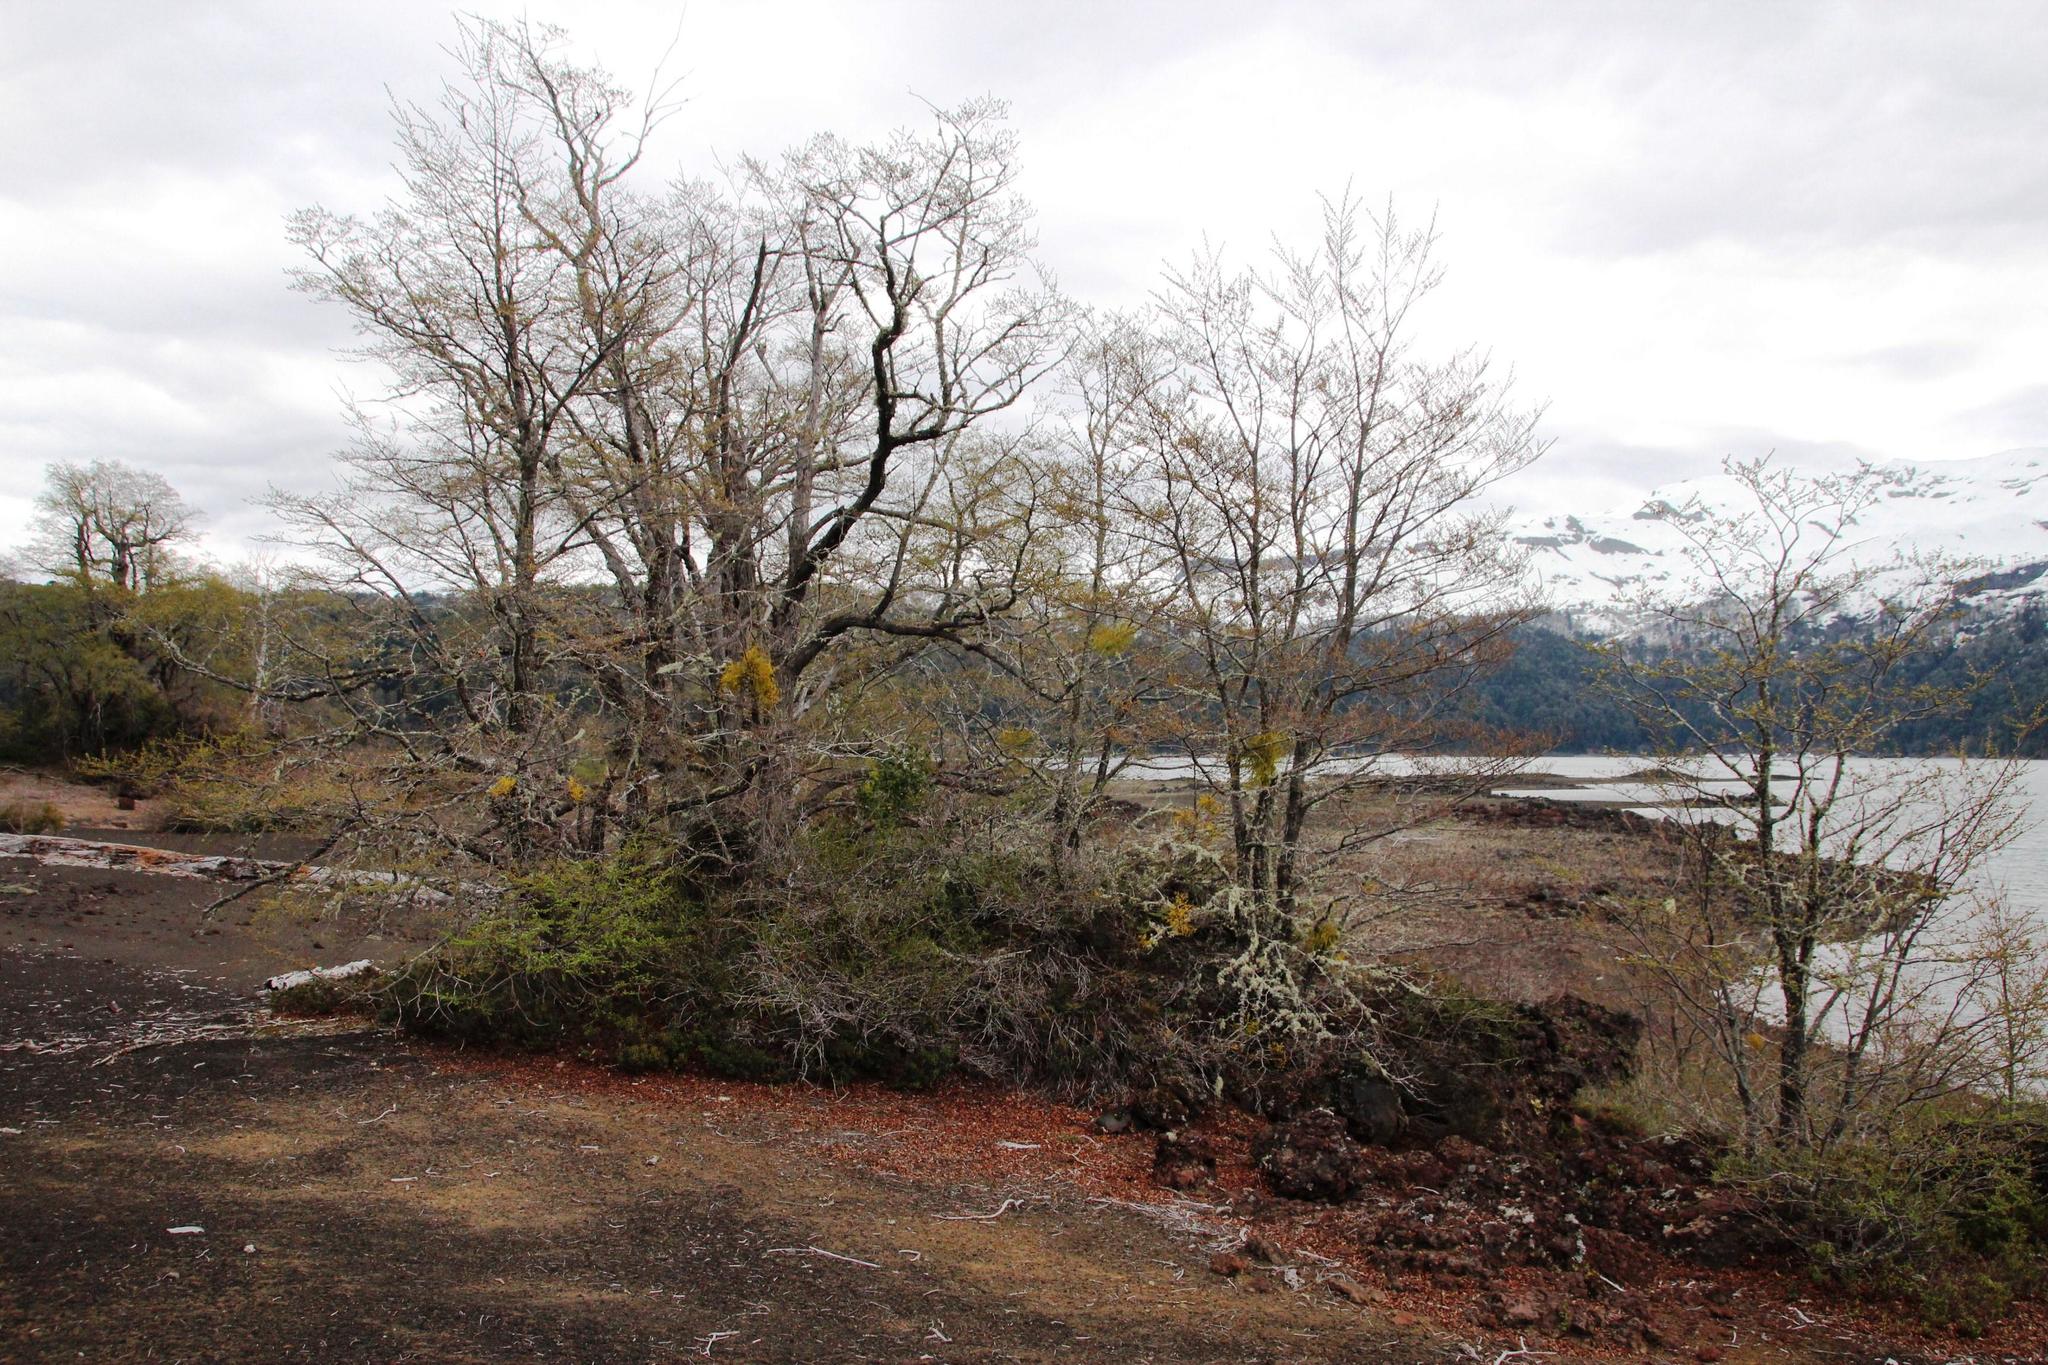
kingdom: Plantae
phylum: Tracheophyta
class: Magnoliopsida
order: Santalales
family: Misodendraceae
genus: Misodendrum
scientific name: Misodendrum punctulatum
